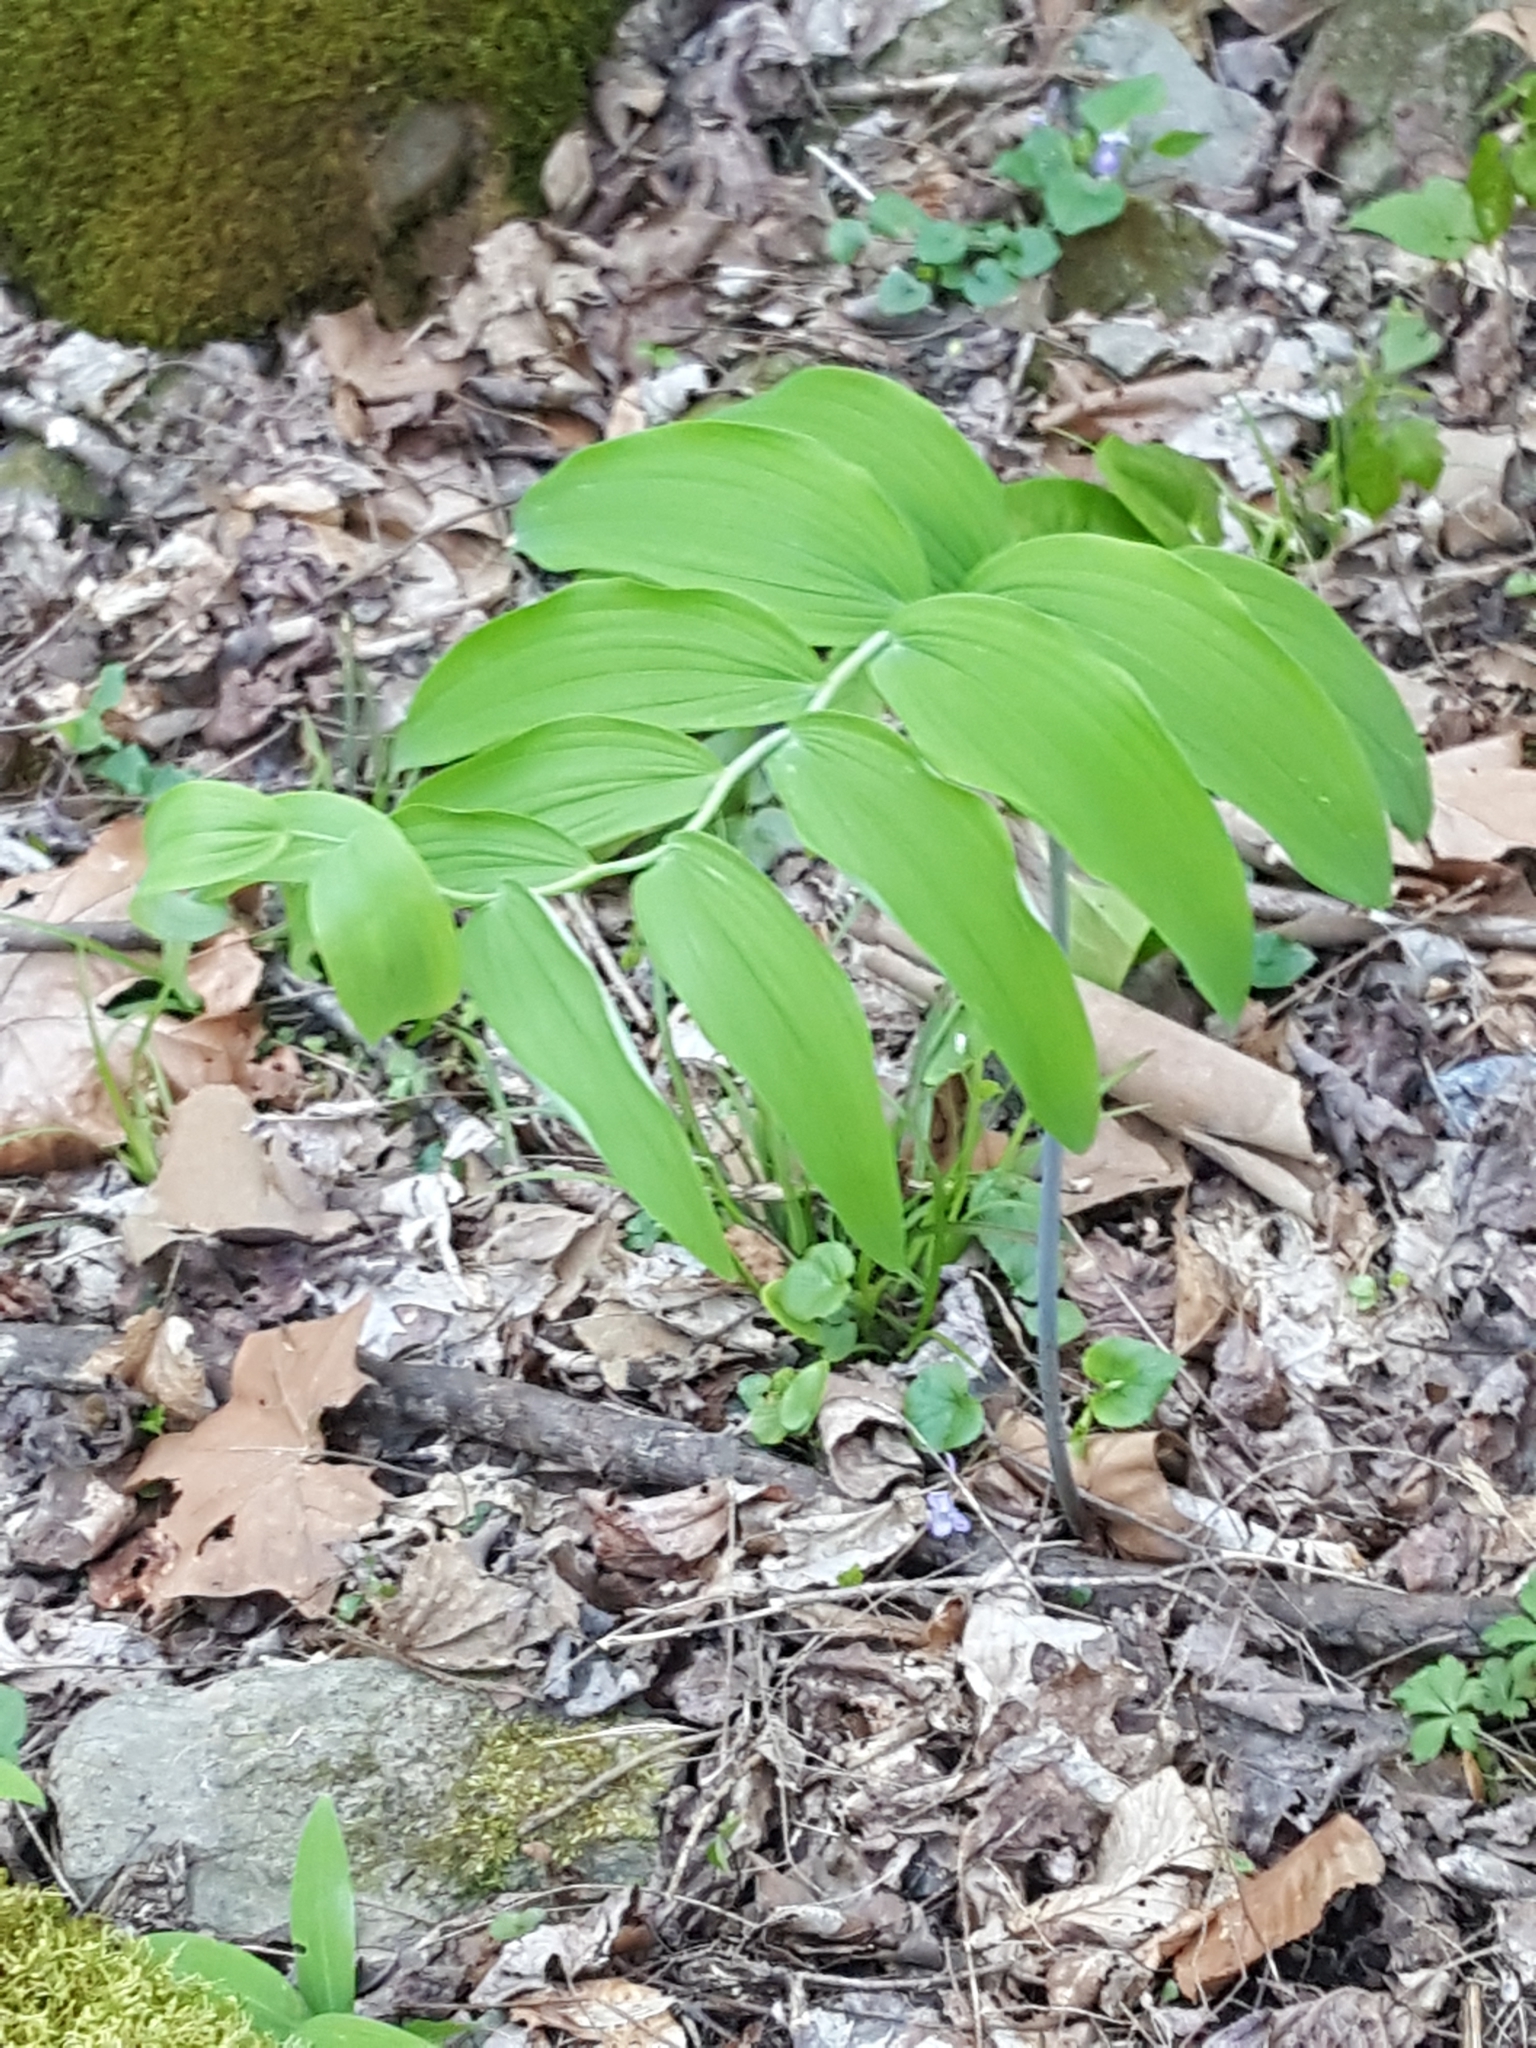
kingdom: Plantae
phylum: Tracheophyta
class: Liliopsida
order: Asparagales
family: Asparagaceae
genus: Polygonatum
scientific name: Polygonatum biflorum
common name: American solomon's-seal
